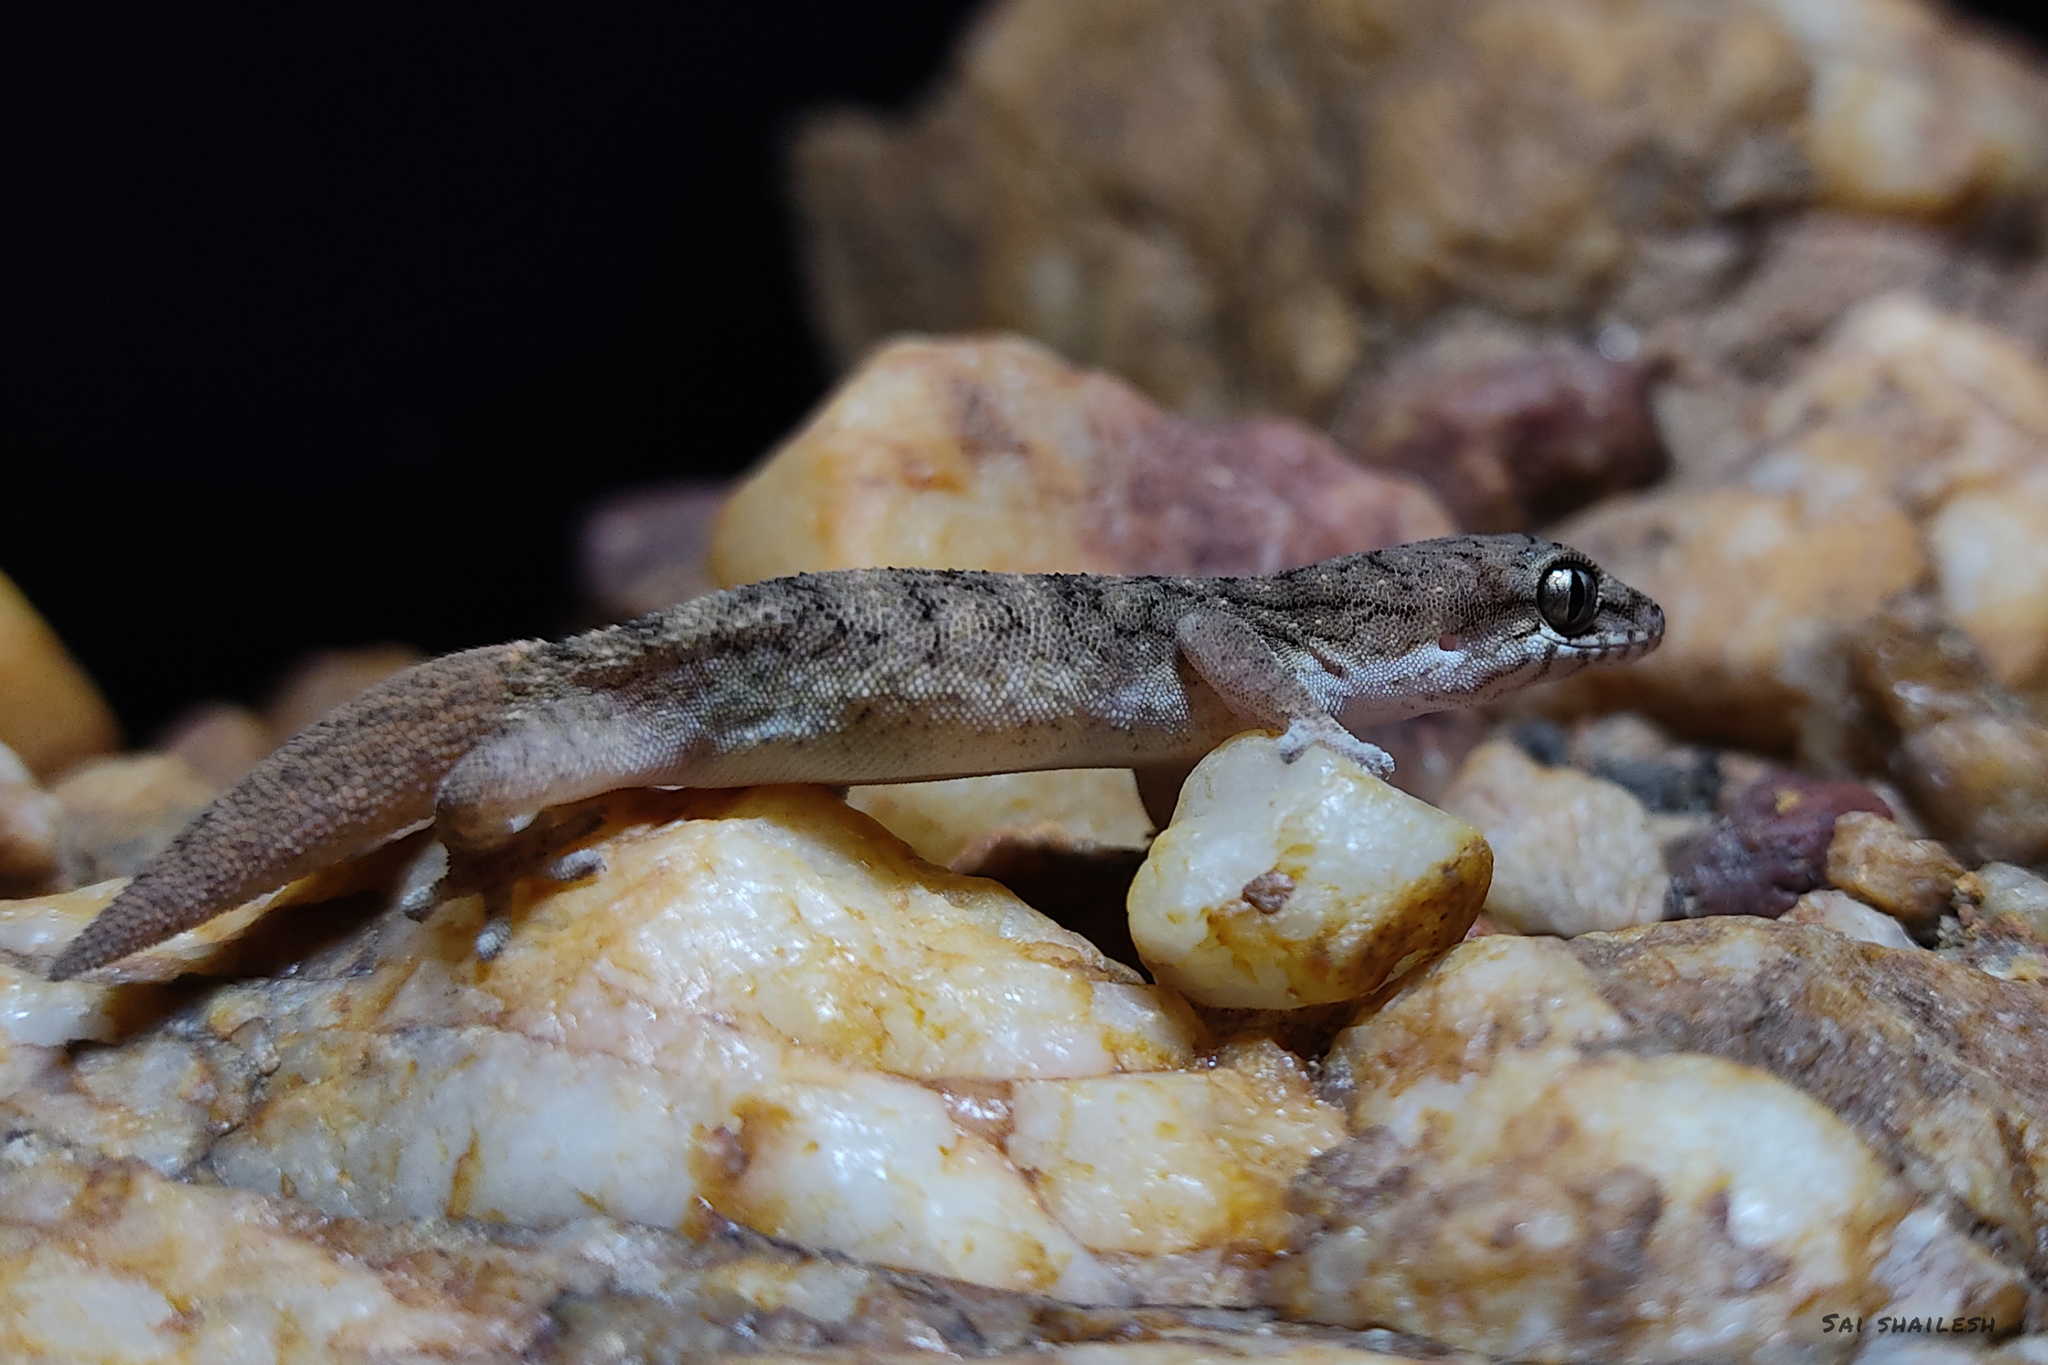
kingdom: Animalia
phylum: Chordata
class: Squamata
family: Gekkonidae
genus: Hemidactylus
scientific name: Hemidactylus reticulatus
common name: Reticulate leaf-toed gecko
